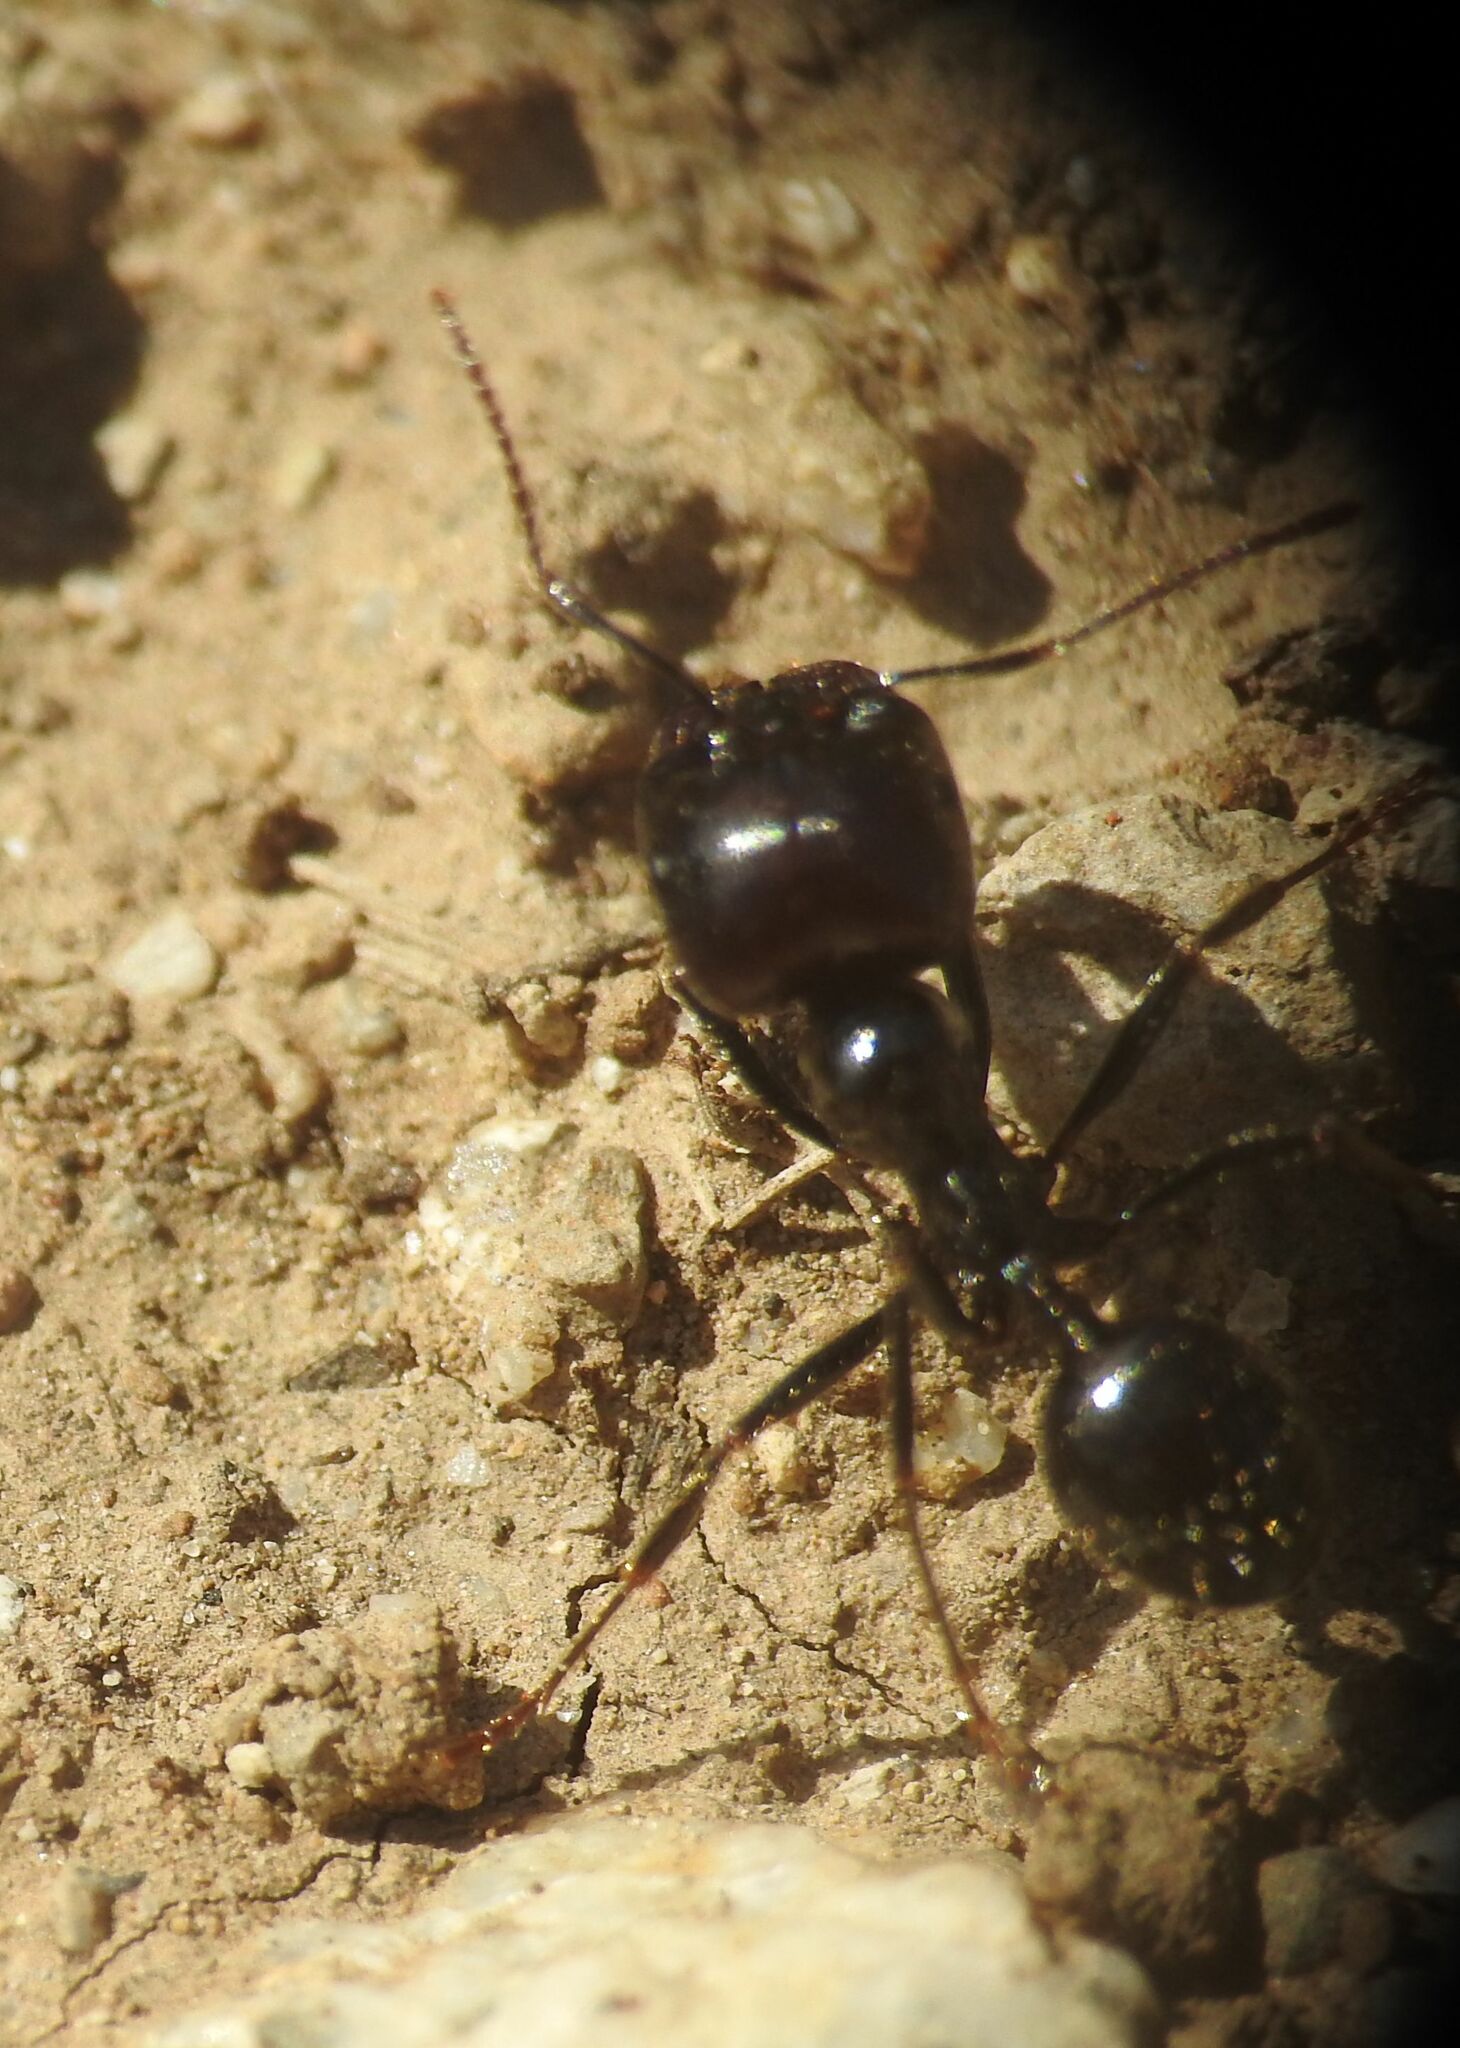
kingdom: Animalia
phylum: Arthropoda
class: Insecta
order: Hymenoptera
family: Formicidae
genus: Messor
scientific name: Messor barbarus
